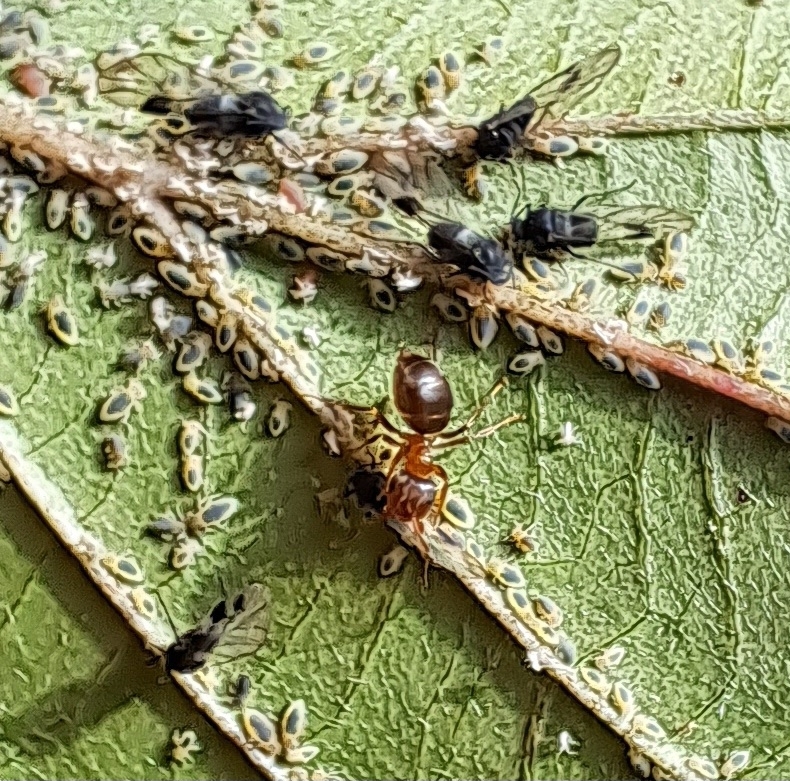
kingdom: Animalia
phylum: Arthropoda
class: Insecta
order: Hymenoptera
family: Formicidae
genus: Lasius
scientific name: Lasius brunneus
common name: Brown ant
